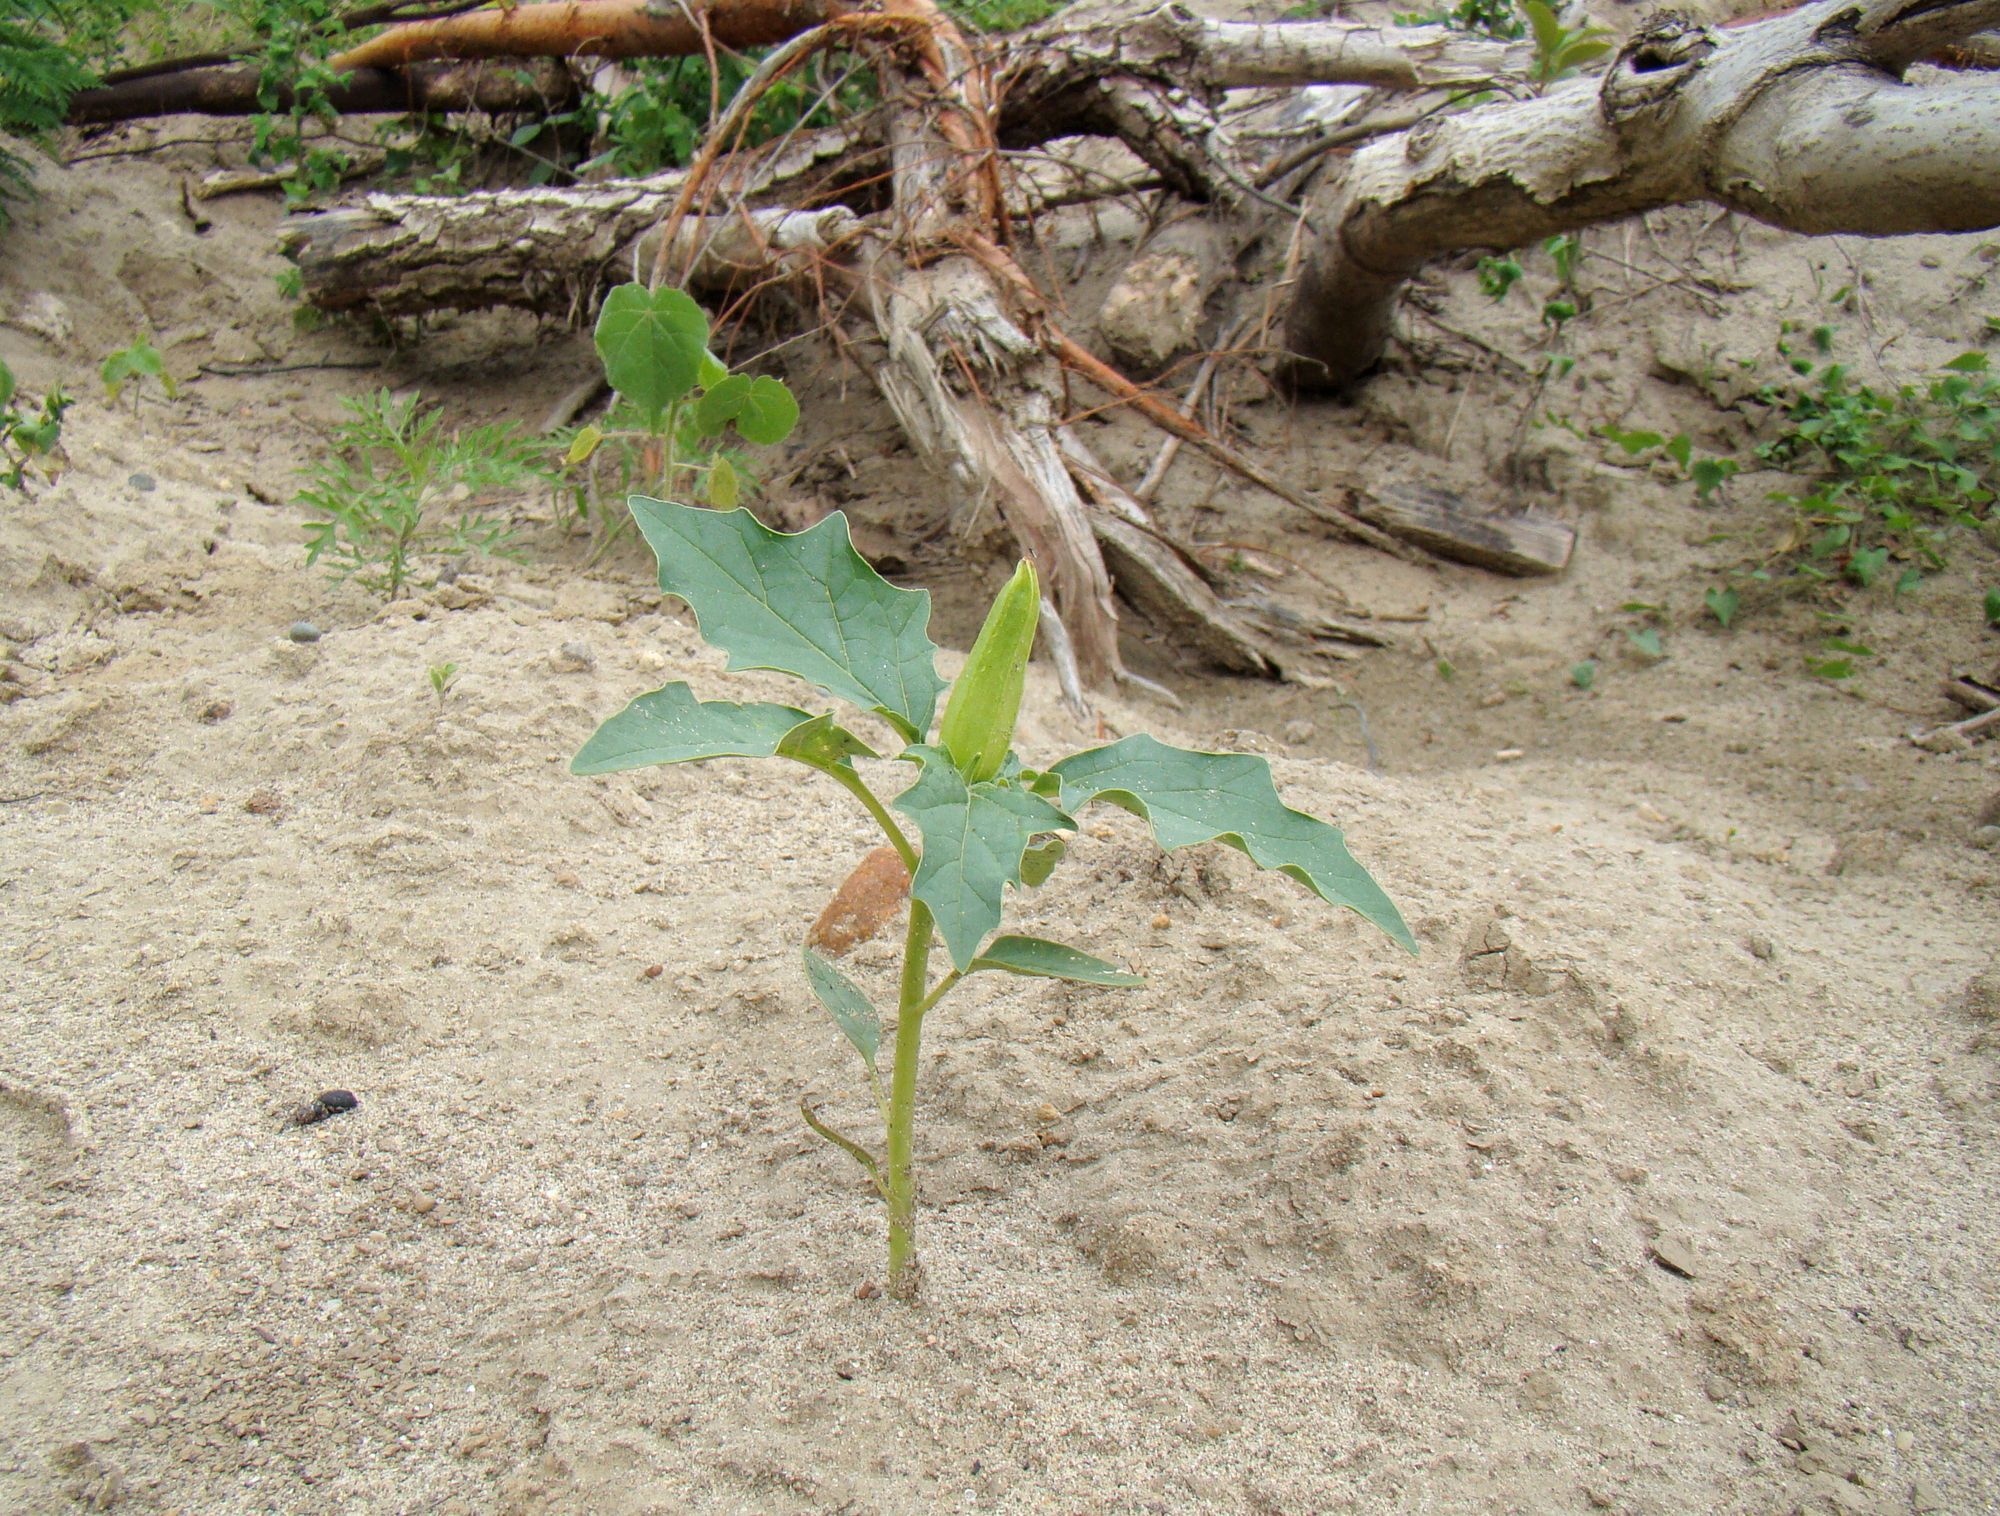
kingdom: Plantae
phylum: Tracheophyta
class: Magnoliopsida
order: Solanales
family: Solanaceae
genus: Datura
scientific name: Datura stramonium
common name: Thorn-apple
